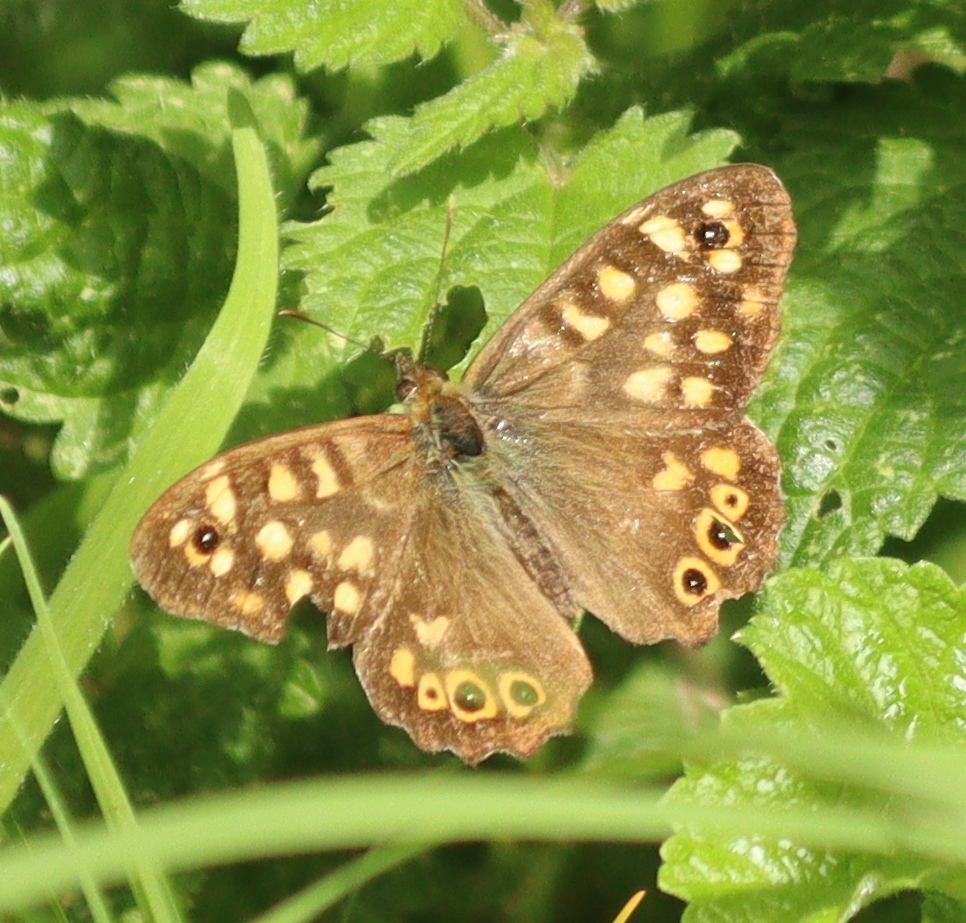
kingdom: Animalia
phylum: Arthropoda
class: Insecta
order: Lepidoptera
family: Nymphalidae
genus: Pararge
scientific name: Pararge aegeria
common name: Speckled wood
